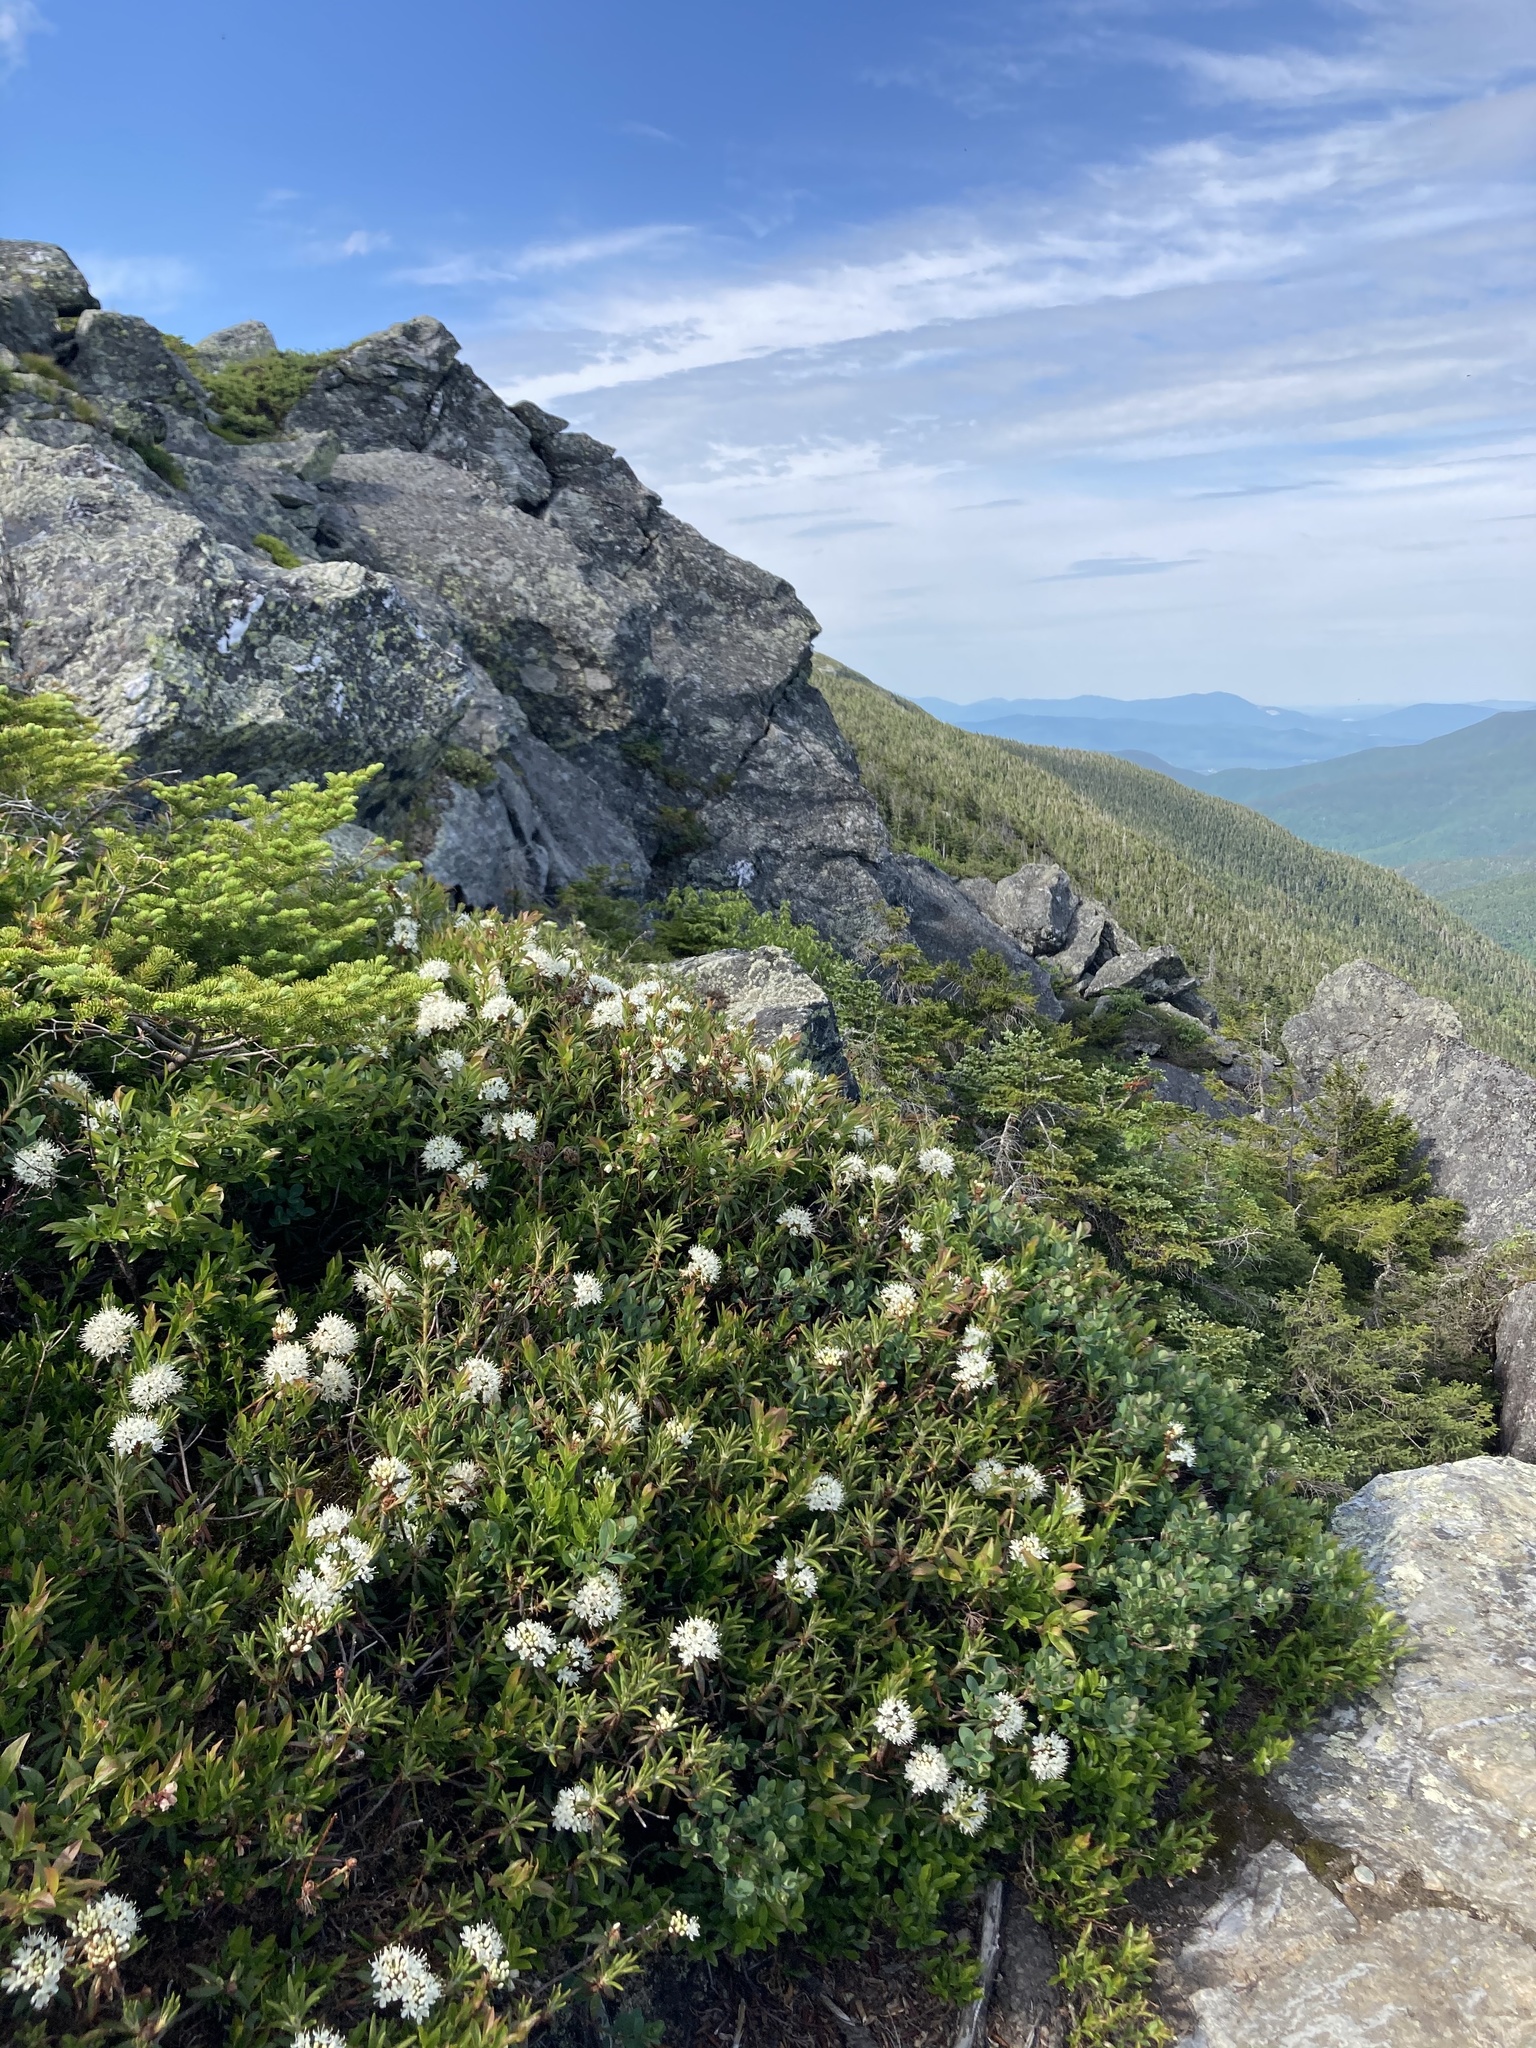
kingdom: Plantae
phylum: Tracheophyta
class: Magnoliopsida
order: Ericales
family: Ericaceae
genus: Rhododendron
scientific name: Rhododendron groenlandicum
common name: Bog labrador tea
